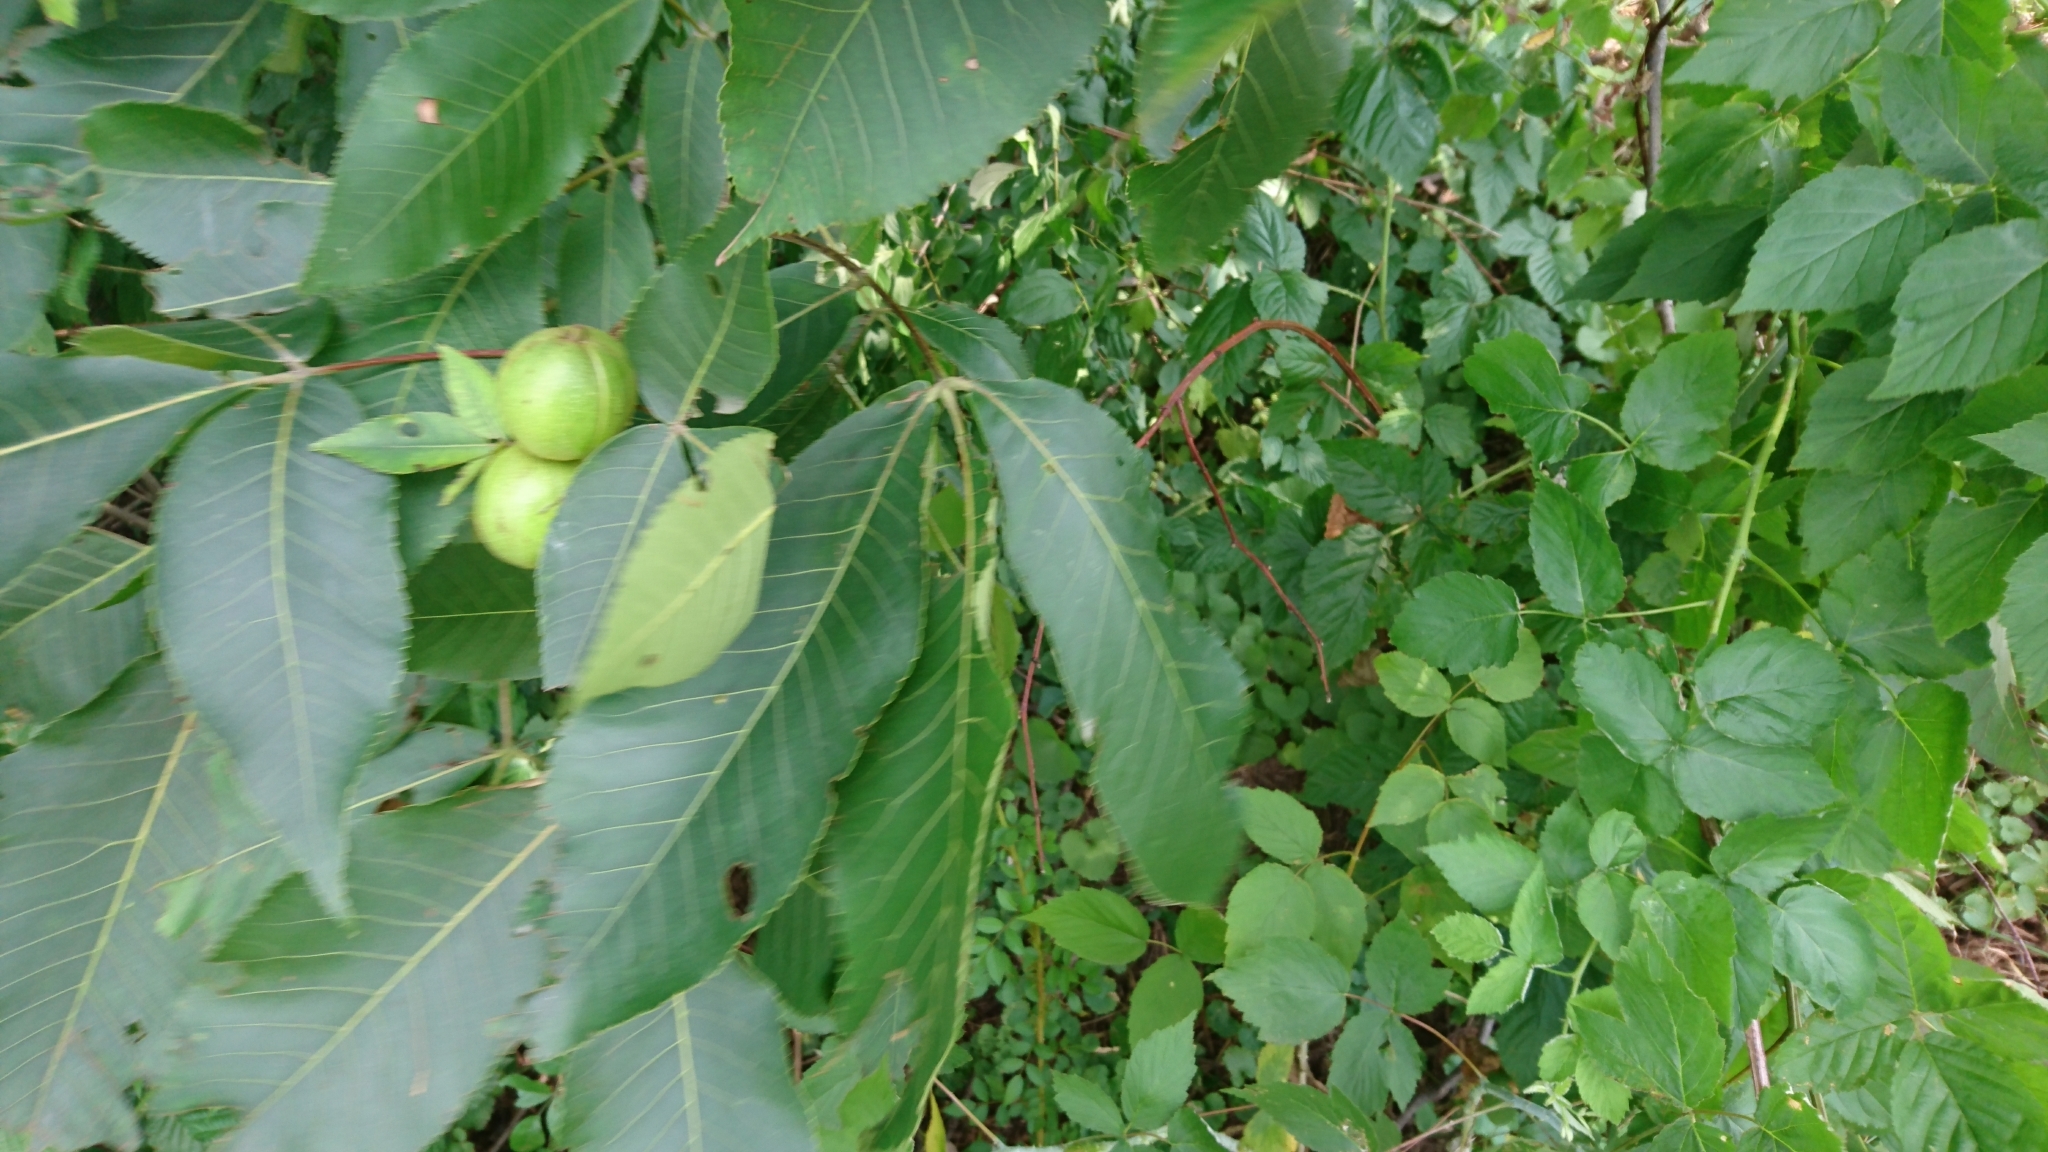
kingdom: Plantae
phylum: Tracheophyta
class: Magnoliopsida
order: Fagales
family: Juglandaceae
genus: Carya
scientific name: Carya ovata
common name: Shagbark hickory
